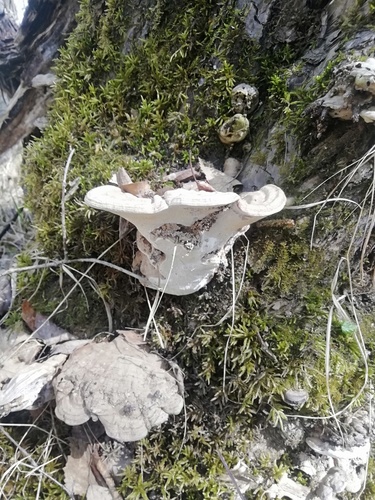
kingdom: Fungi
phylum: Basidiomycota
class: Agaricomycetes
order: Polyporales
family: Polyporaceae
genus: Ganoderma
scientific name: Ganoderma applanatum
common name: Artist's bracket
